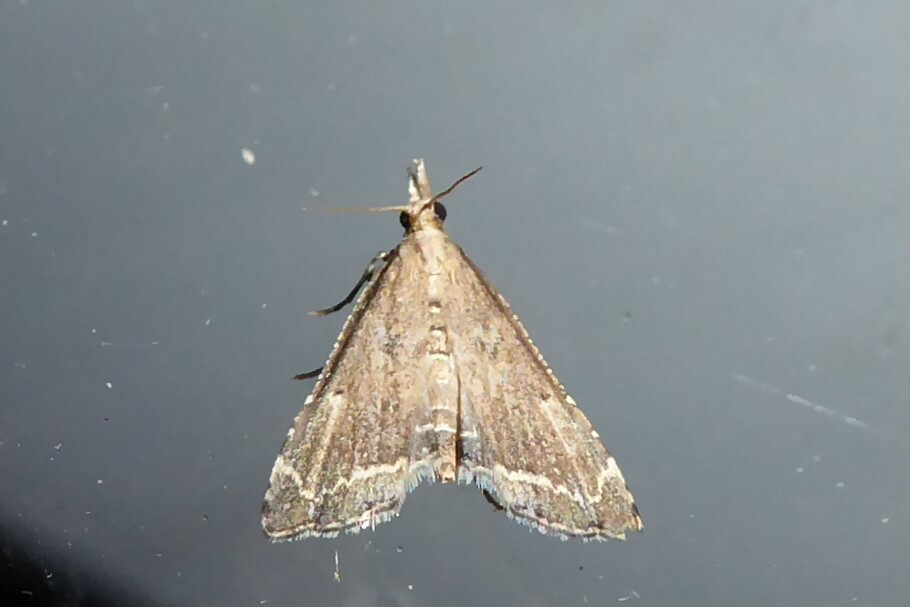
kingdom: Animalia
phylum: Arthropoda
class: Insecta
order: Lepidoptera
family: Crambidae
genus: Diplopseustis
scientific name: Diplopseustis perieresalis
